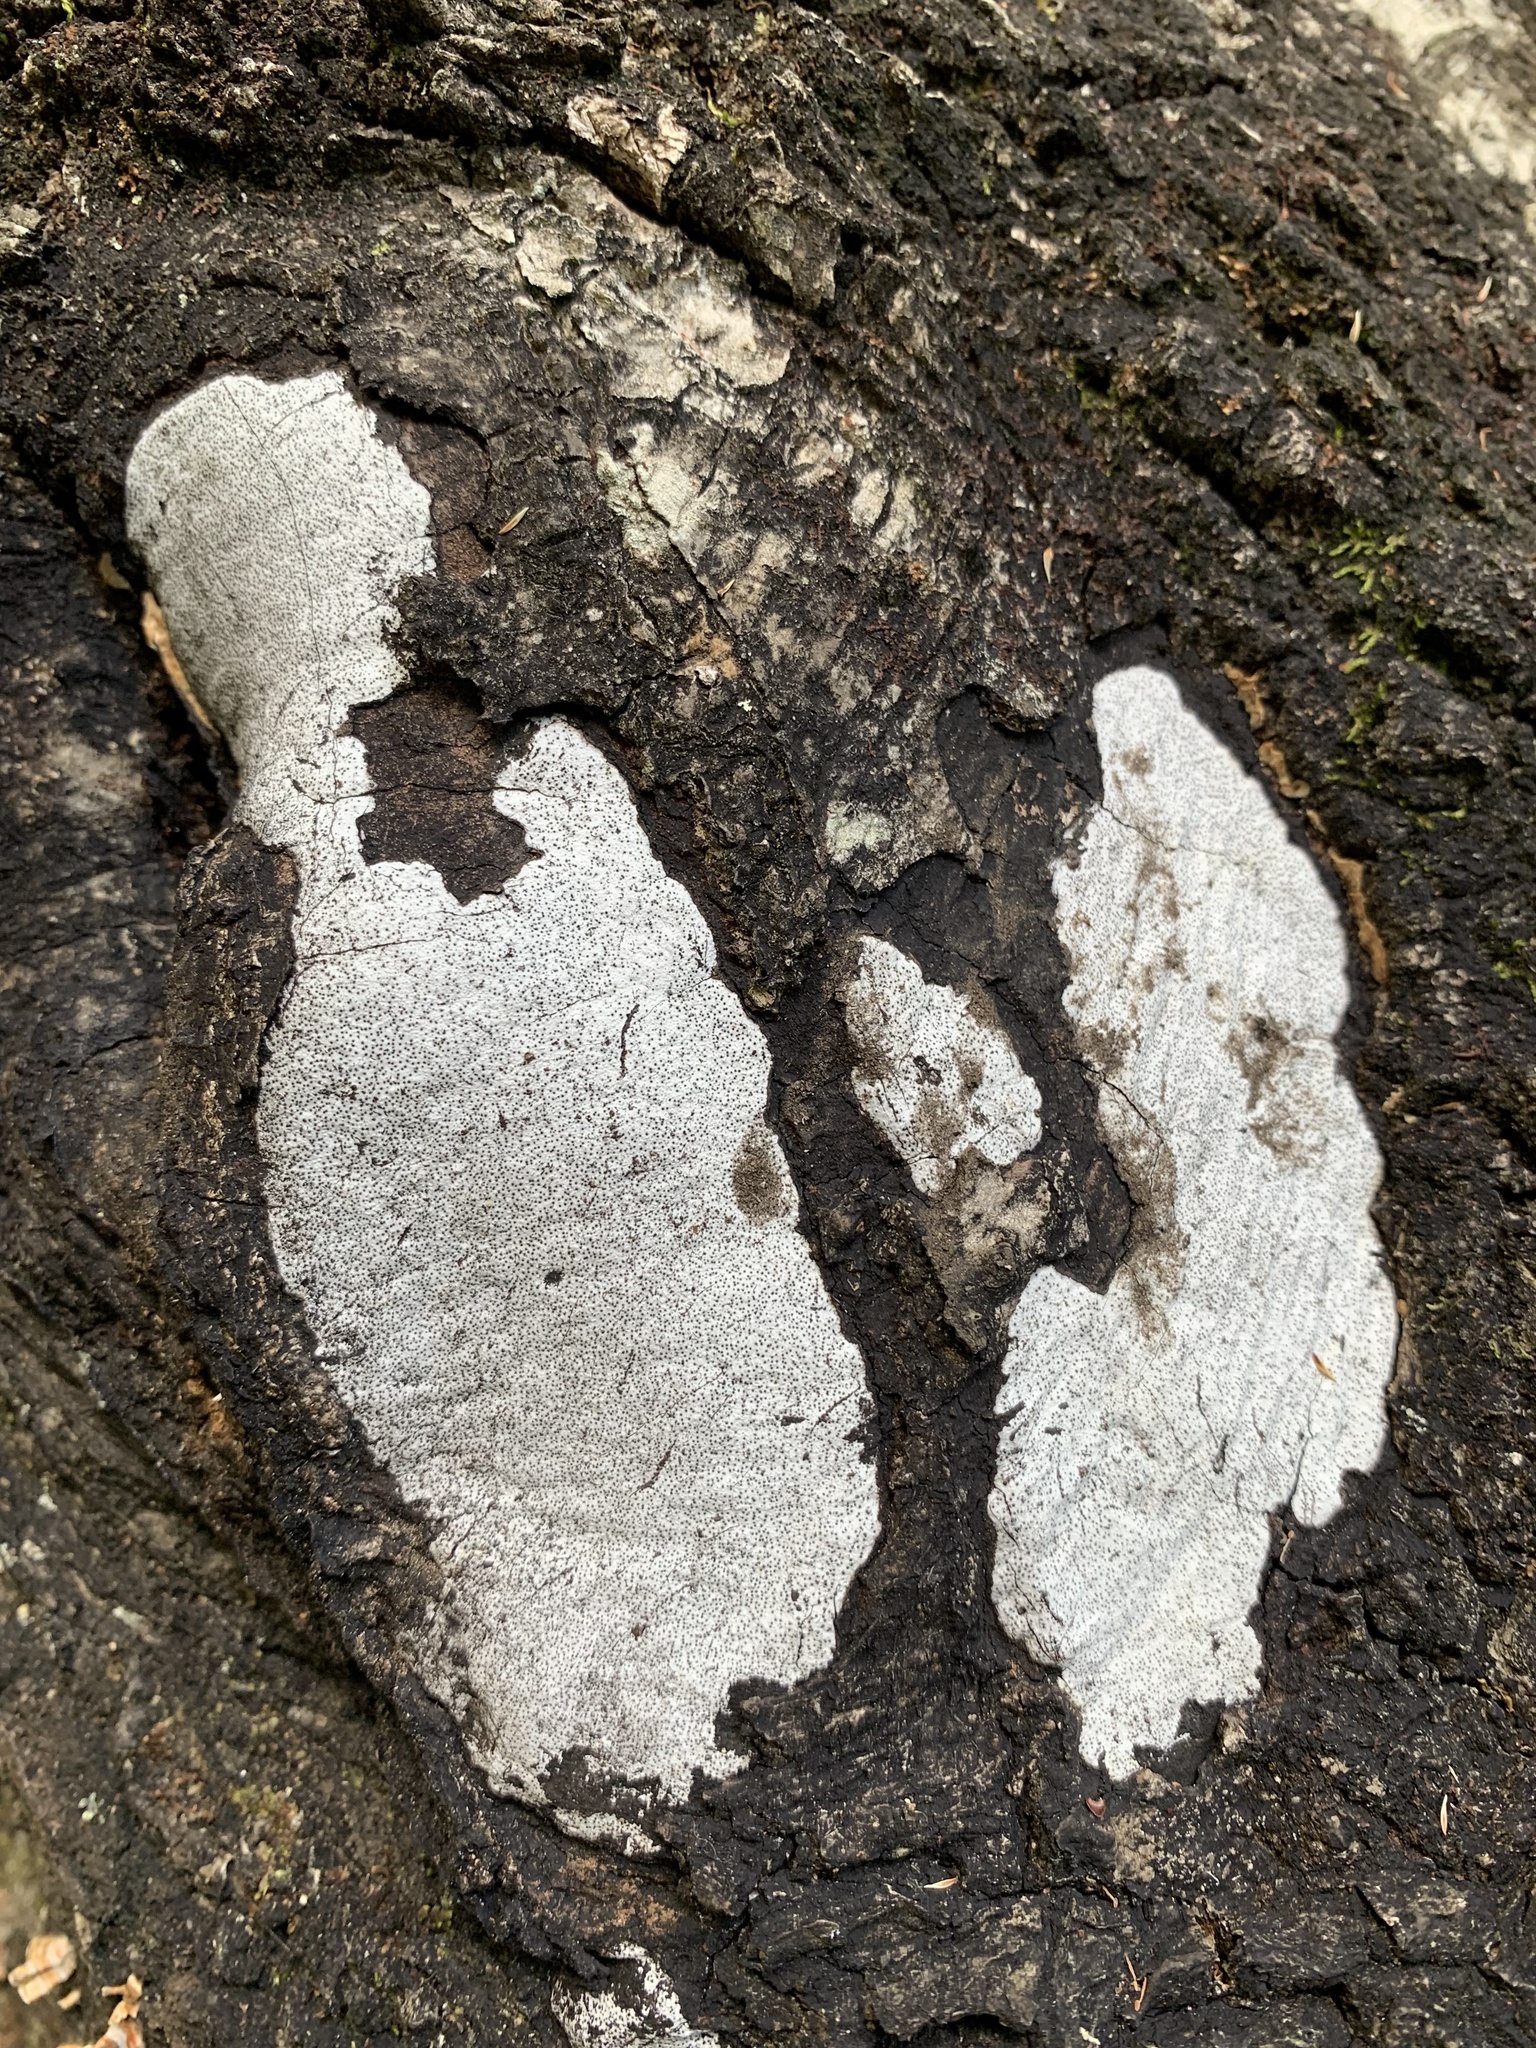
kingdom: Fungi
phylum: Ascomycota
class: Sordariomycetes
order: Xylariales
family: Graphostromataceae
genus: Biscogniauxia
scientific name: Biscogniauxia atropunctata
